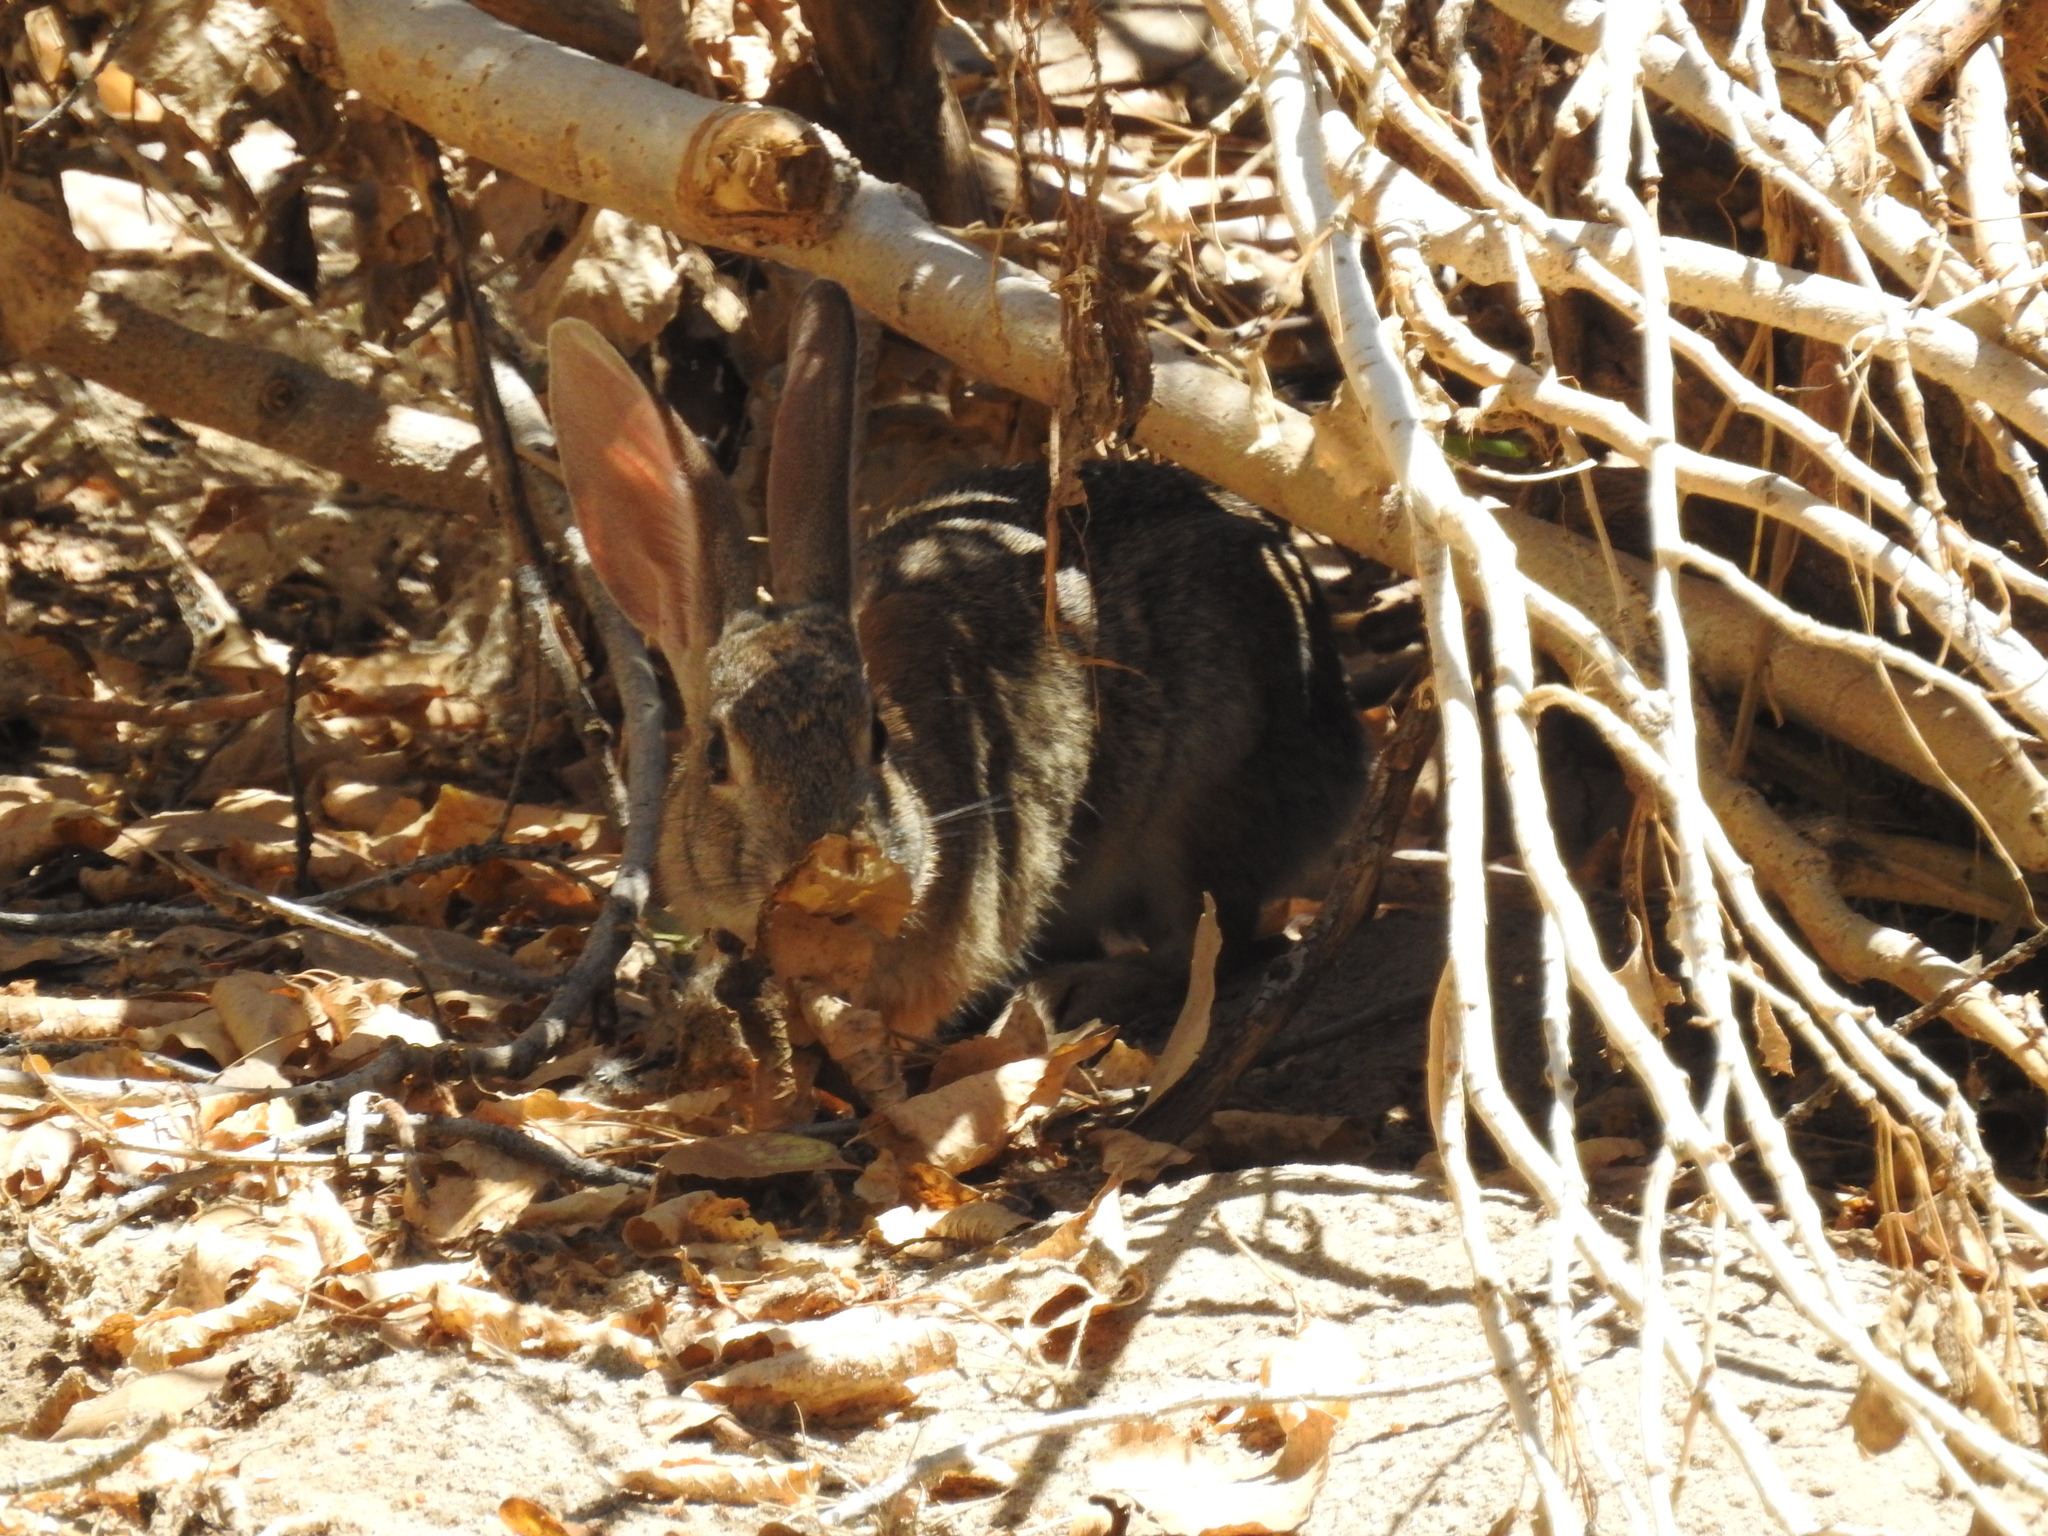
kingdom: Animalia
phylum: Chordata
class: Mammalia
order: Lagomorpha
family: Leporidae
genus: Sylvilagus
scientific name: Sylvilagus audubonii
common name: Desert cottontail
